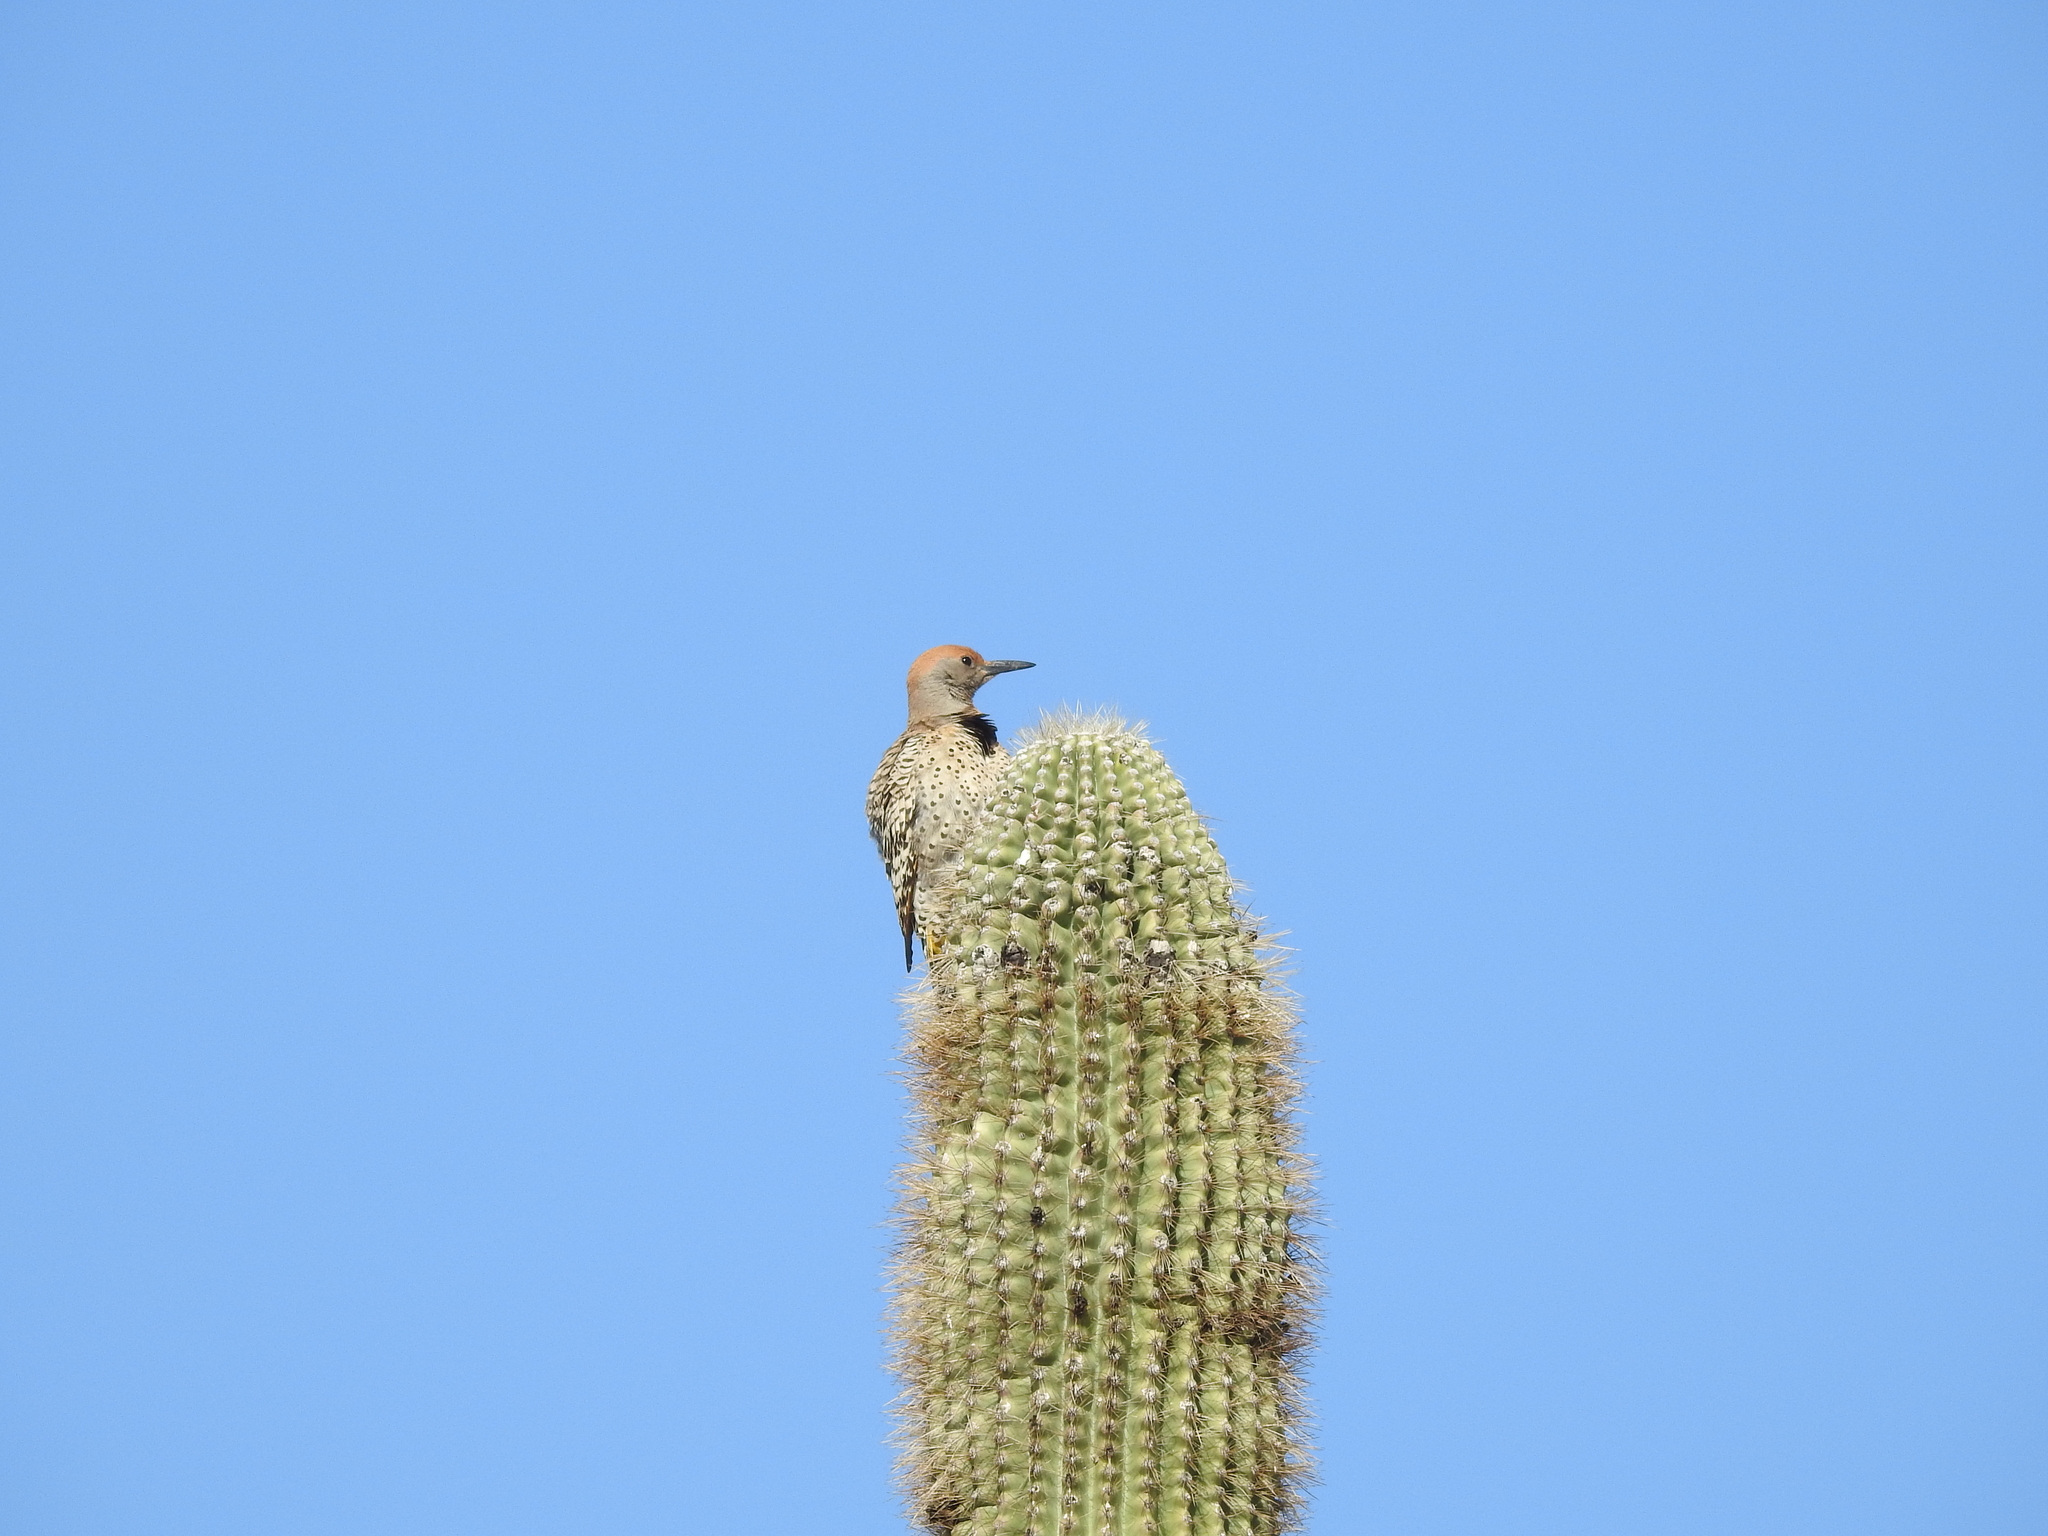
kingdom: Animalia
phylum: Chordata
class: Aves
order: Piciformes
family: Picidae
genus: Colaptes
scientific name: Colaptes chrysoides
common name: Gilded flicker
